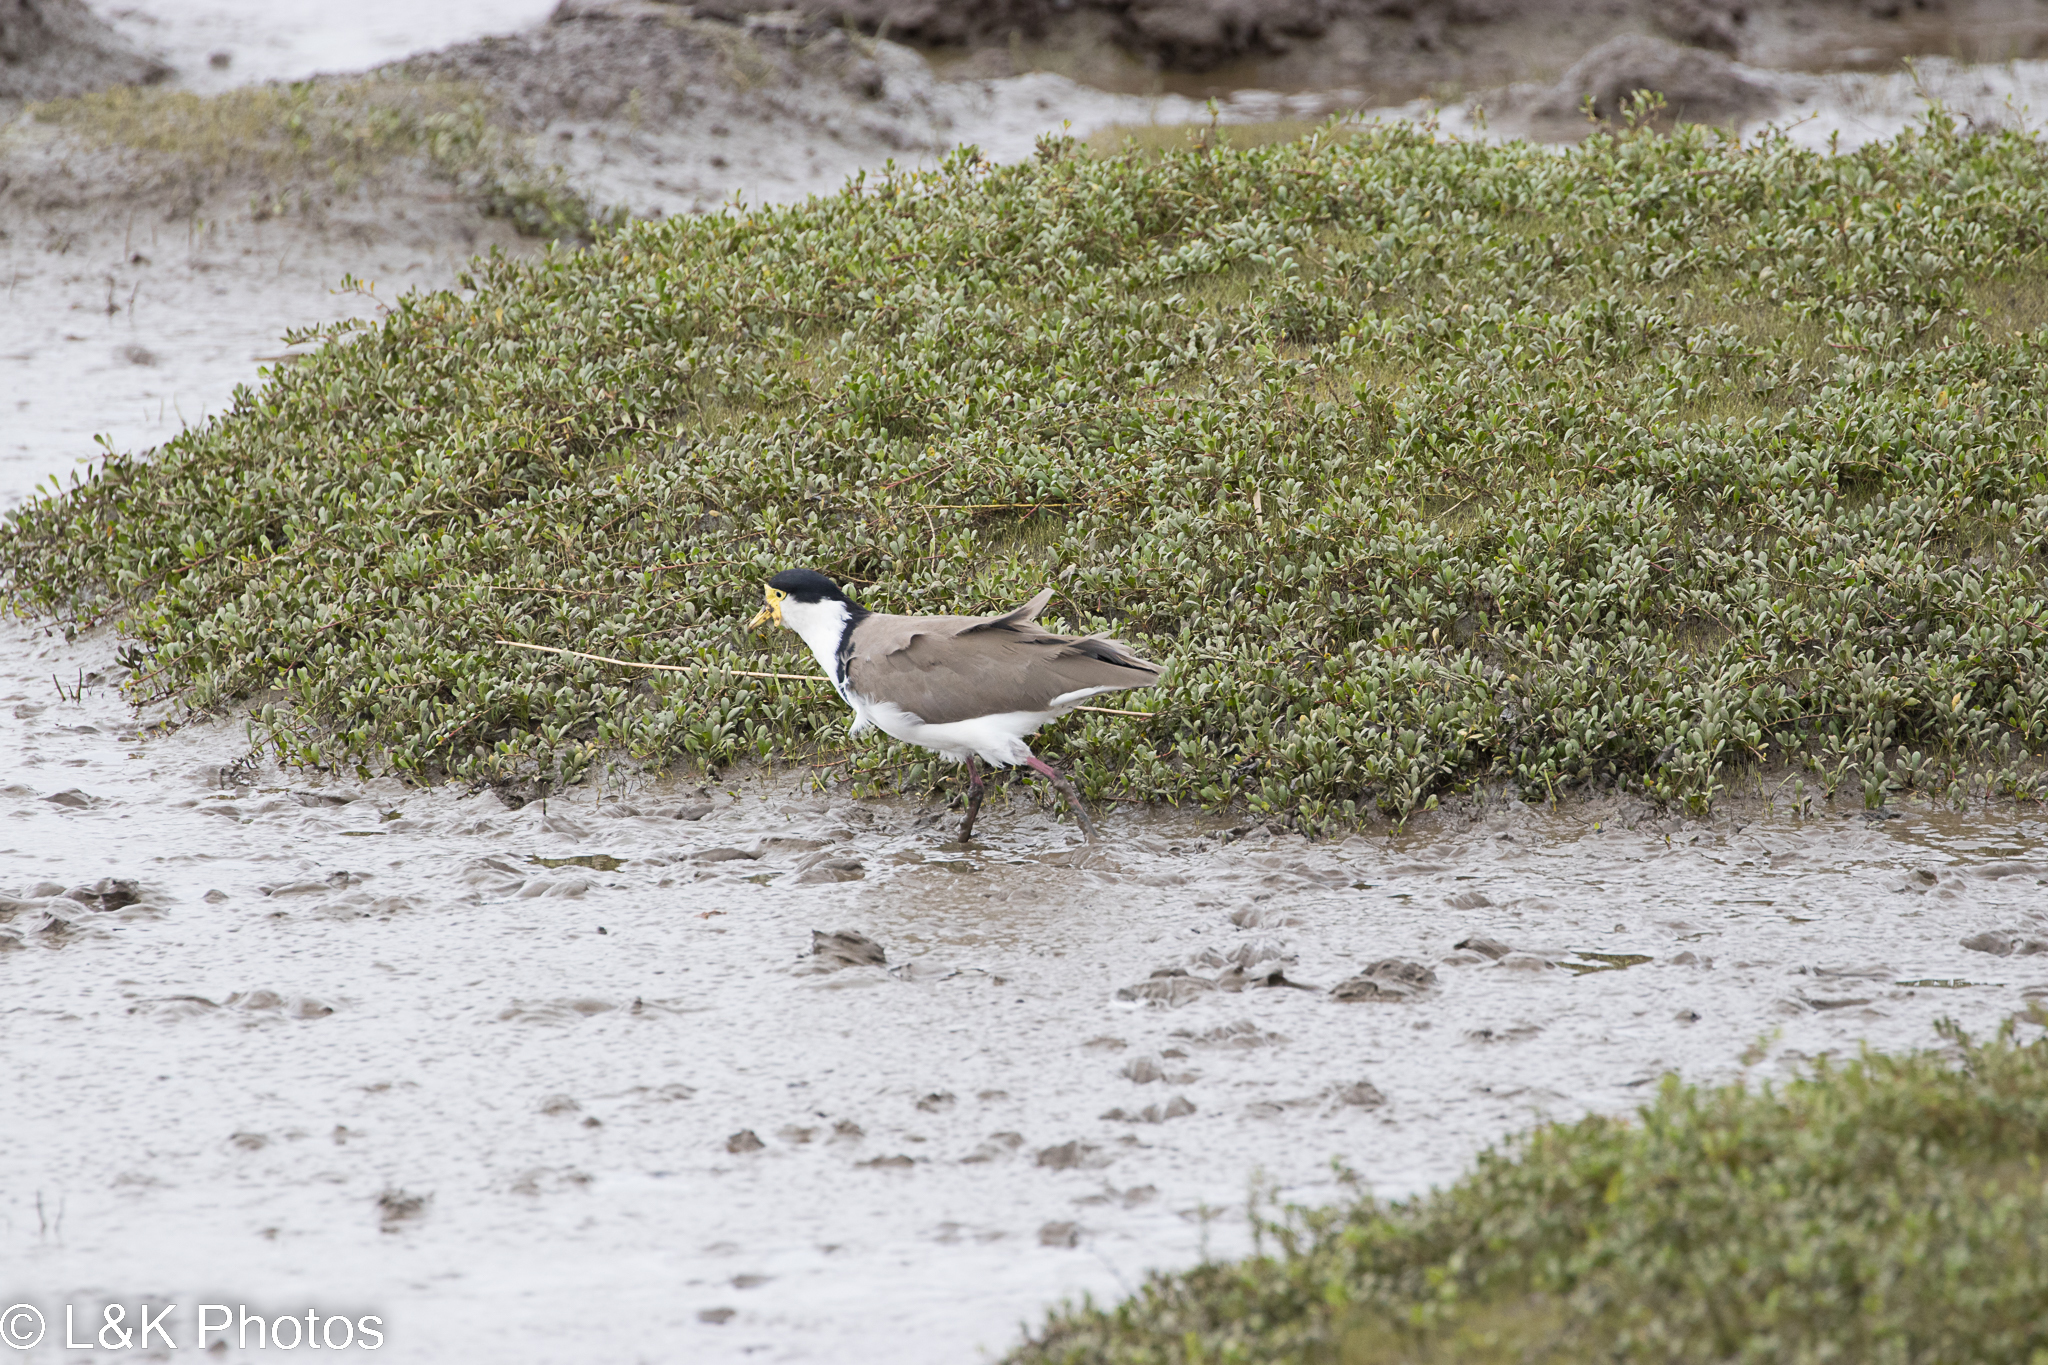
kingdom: Animalia
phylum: Chordata
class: Aves
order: Charadriiformes
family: Charadriidae
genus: Vanellus
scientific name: Vanellus miles
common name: Masked lapwing
